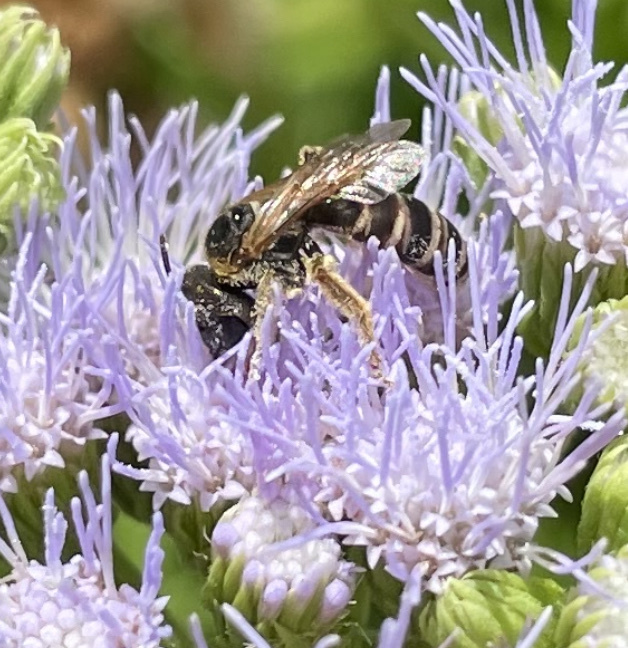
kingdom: Animalia
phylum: Arthropoda
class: Insecta
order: Hymenoptera
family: Halictidae
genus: Halictus
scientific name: Halictus ligatus
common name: Ligated furrow bee
